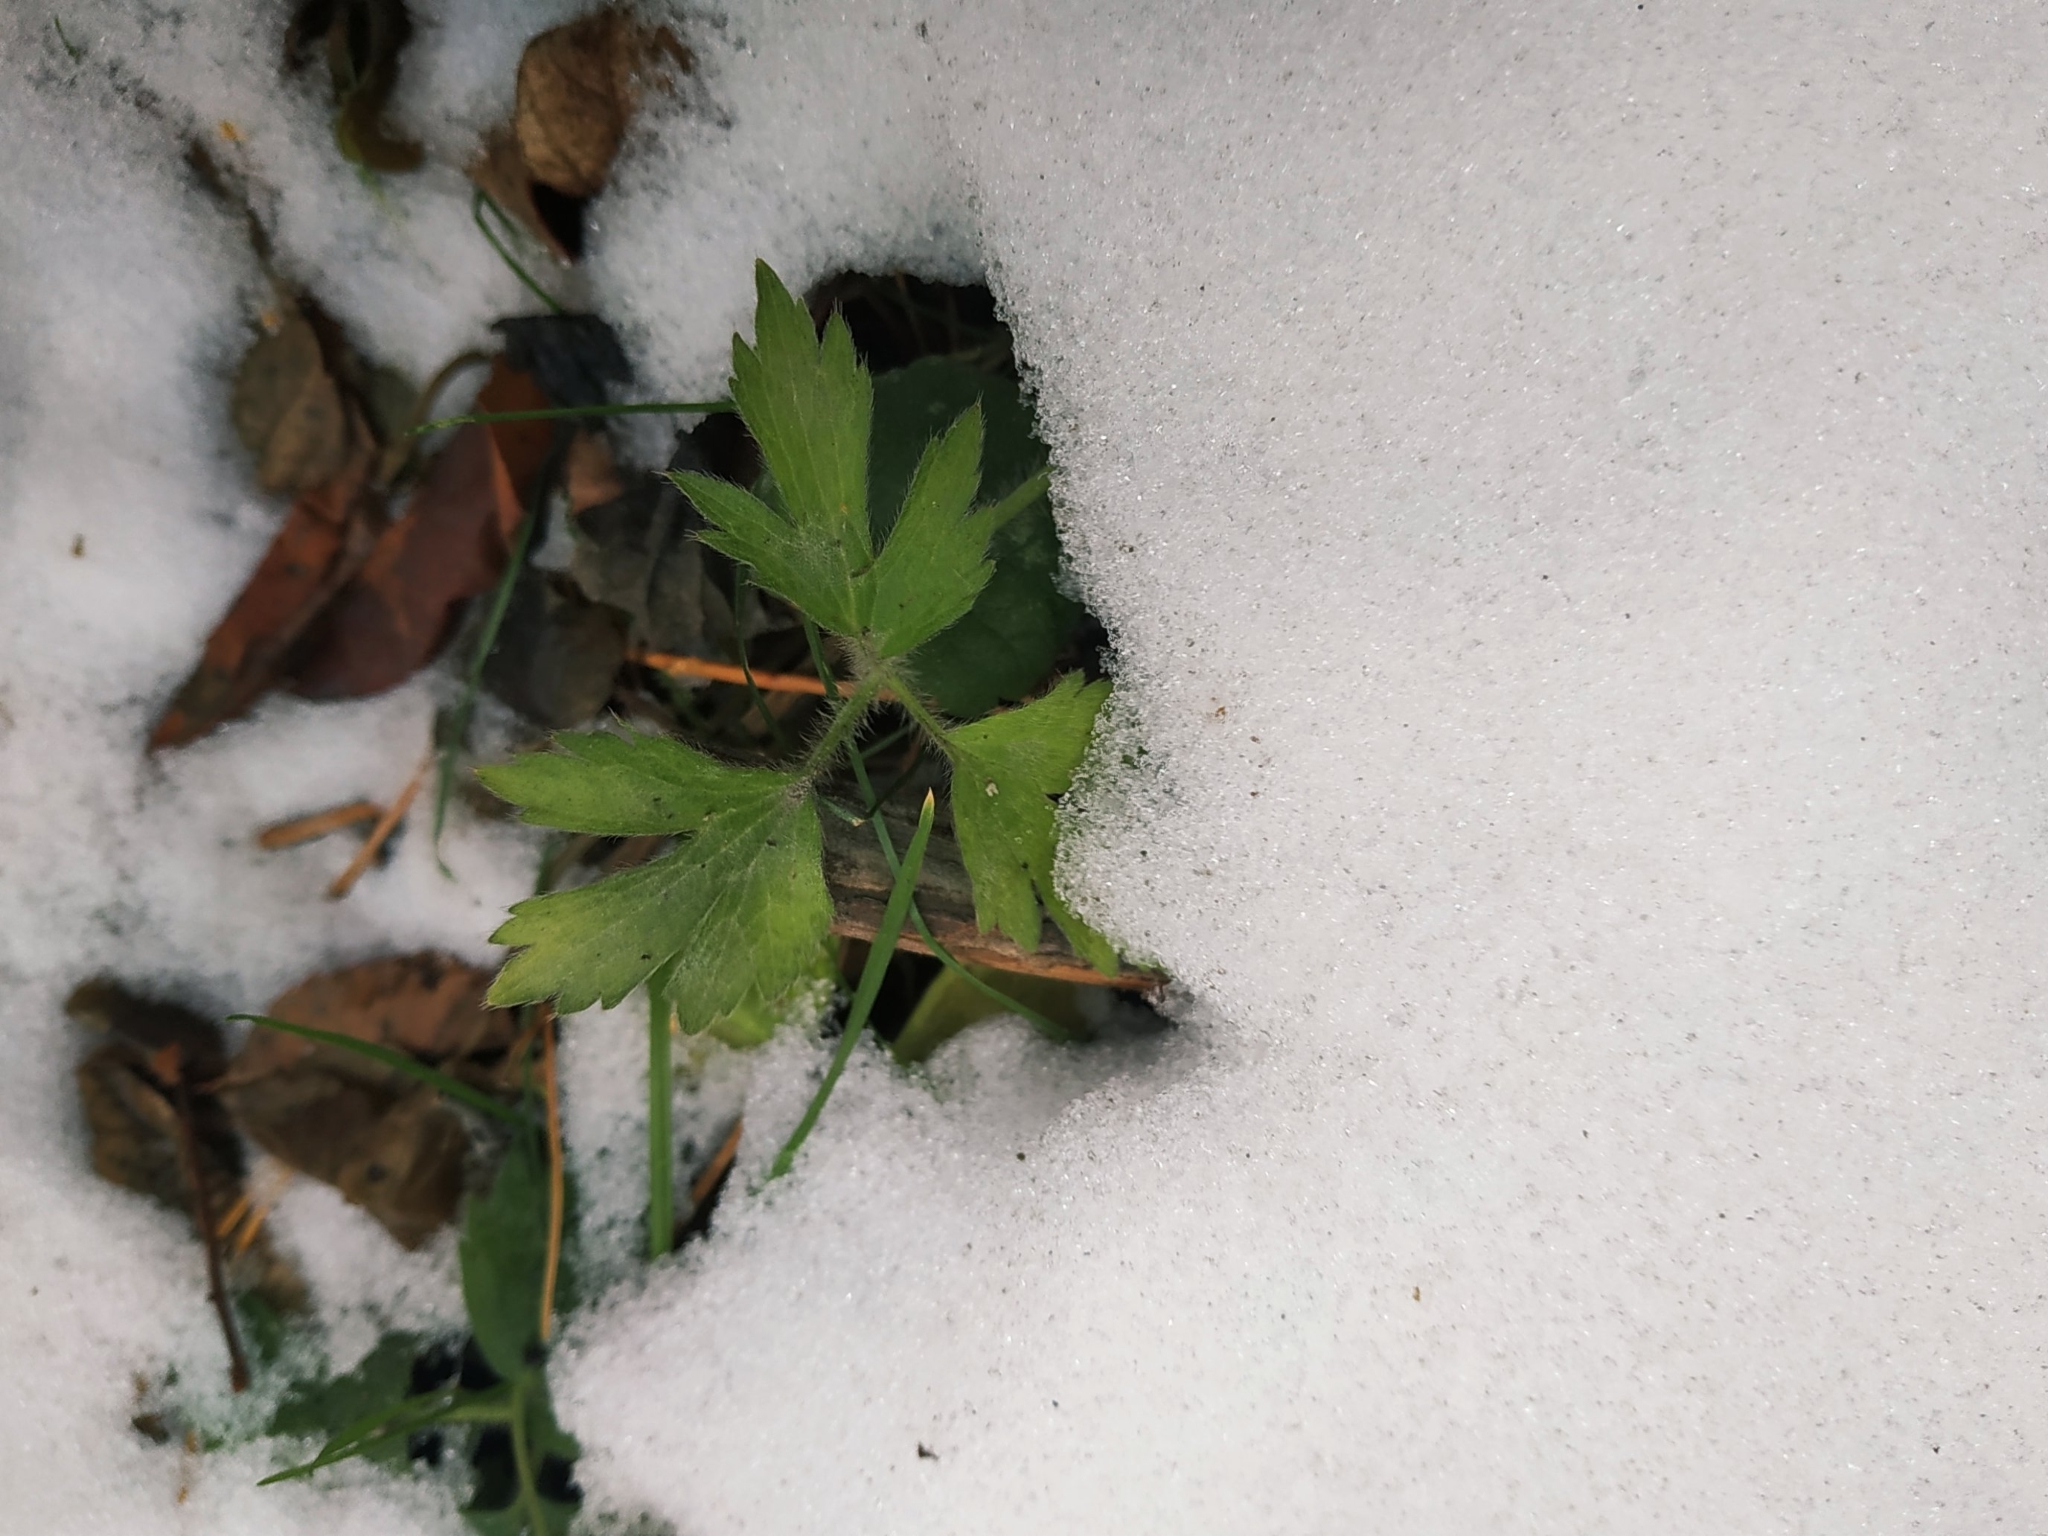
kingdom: Plantae
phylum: Tracheophyta
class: Magnoliopsida
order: Ranunculales
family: Ranunculaceae
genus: Ranunculus
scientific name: Ranunculus repens
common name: Creeping buttercup
